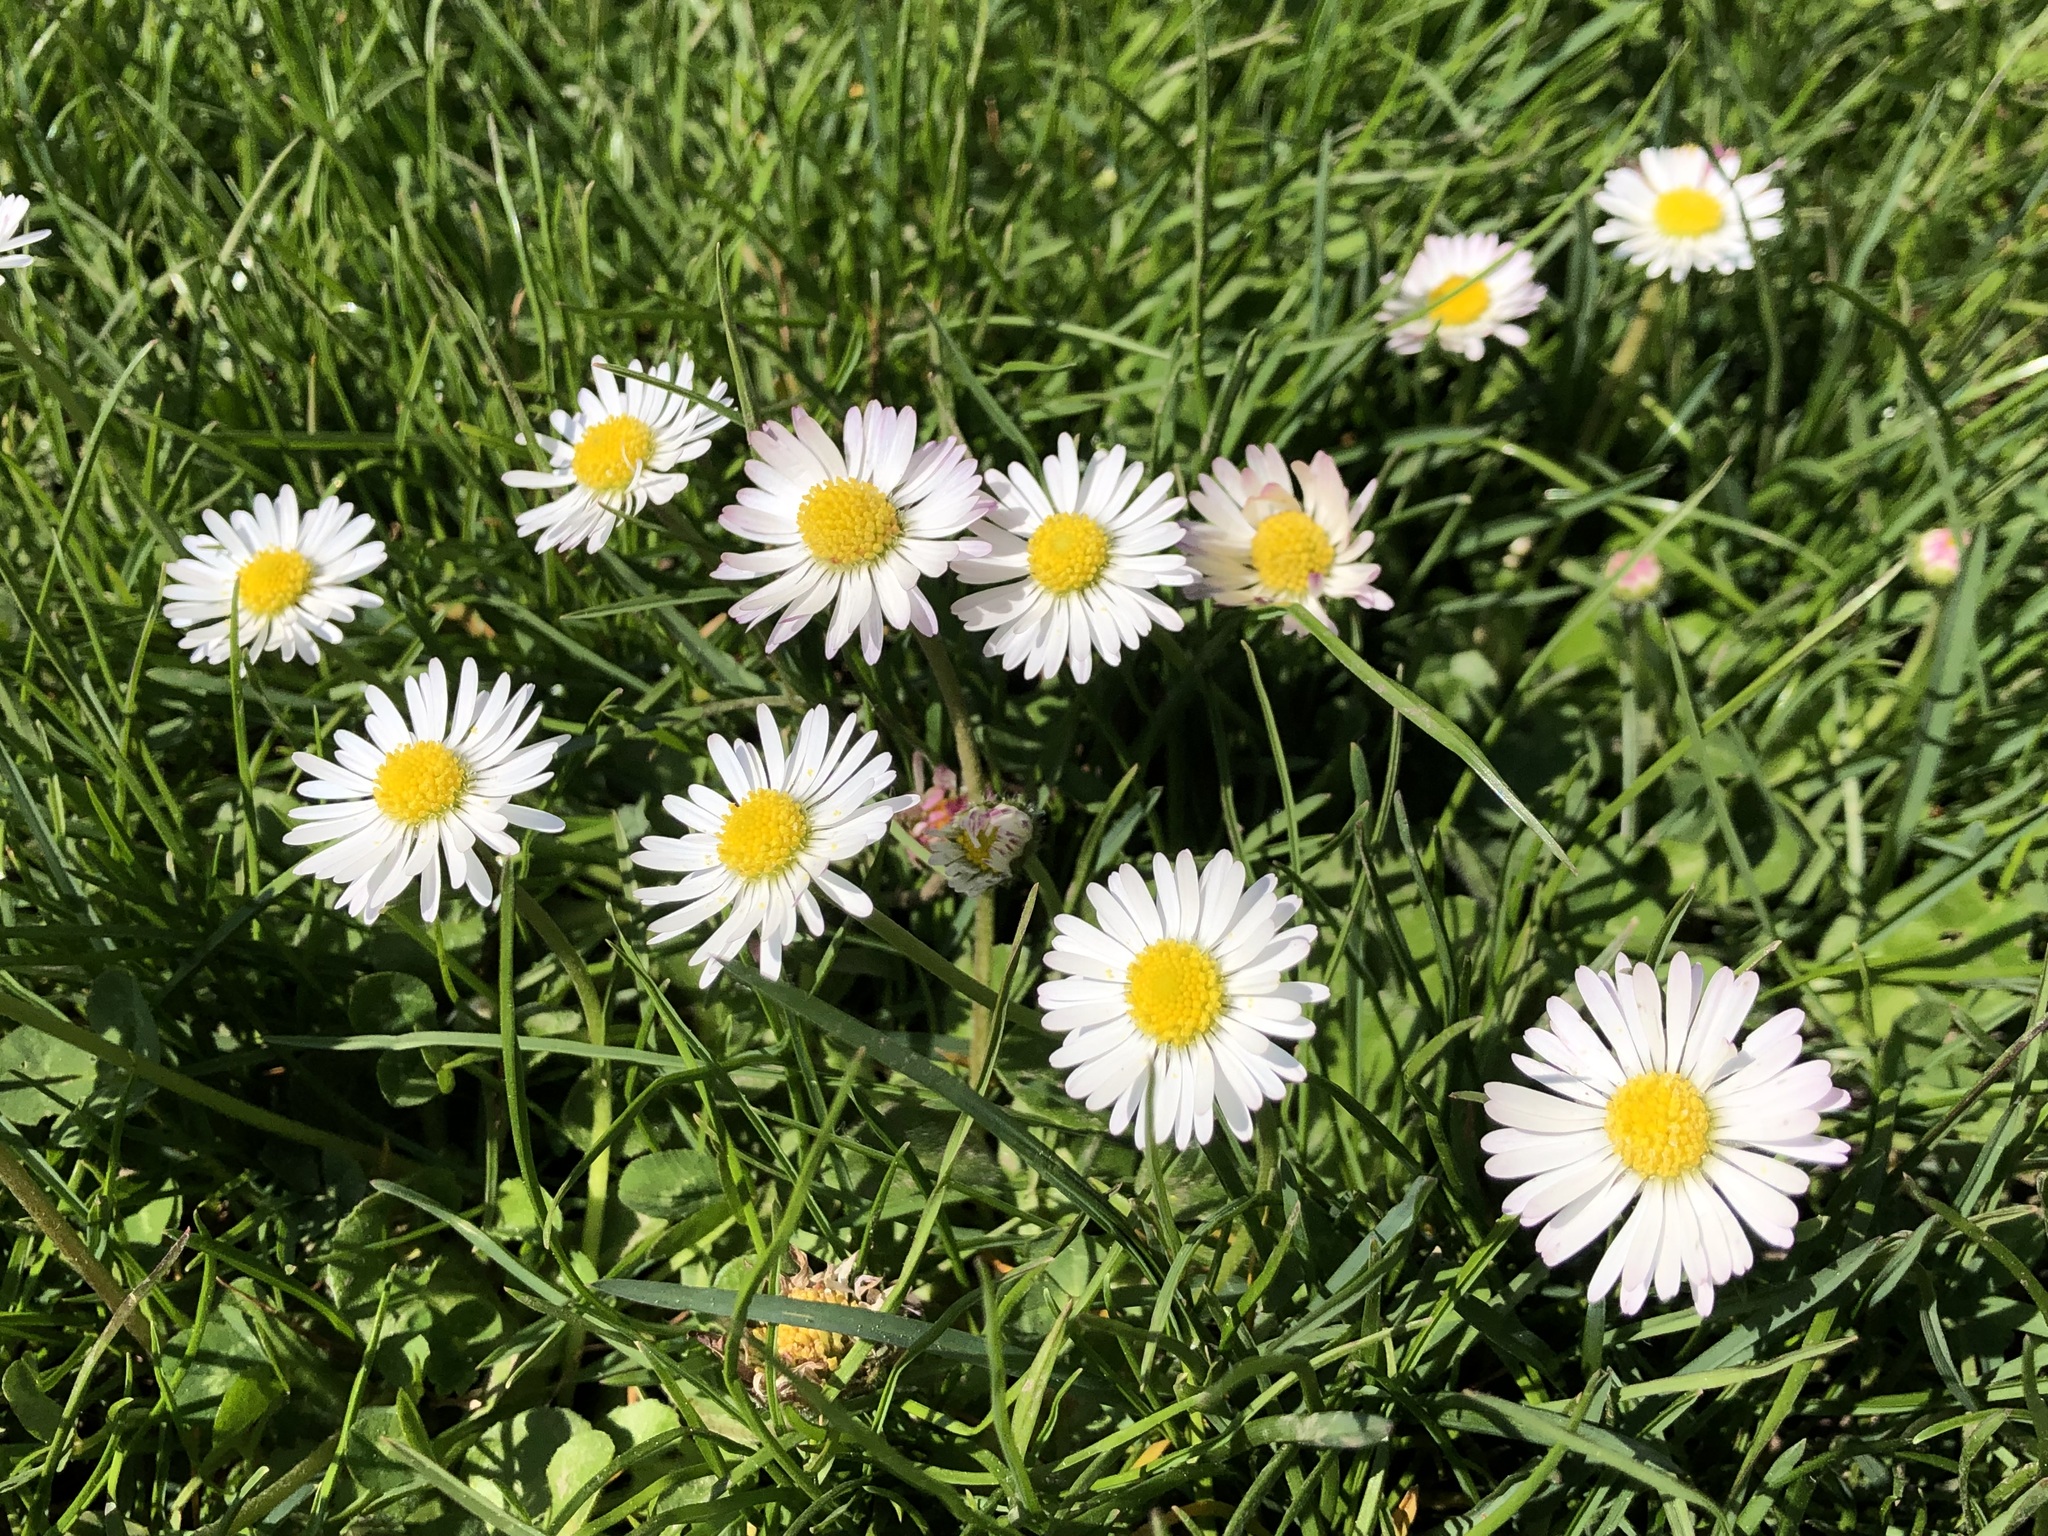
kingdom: Plantae
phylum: Tracheophyta
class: Magnoliopsida
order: Asterales
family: Asteraceae
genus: Bellis
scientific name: Bellis perennis
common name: Lawndaisy
